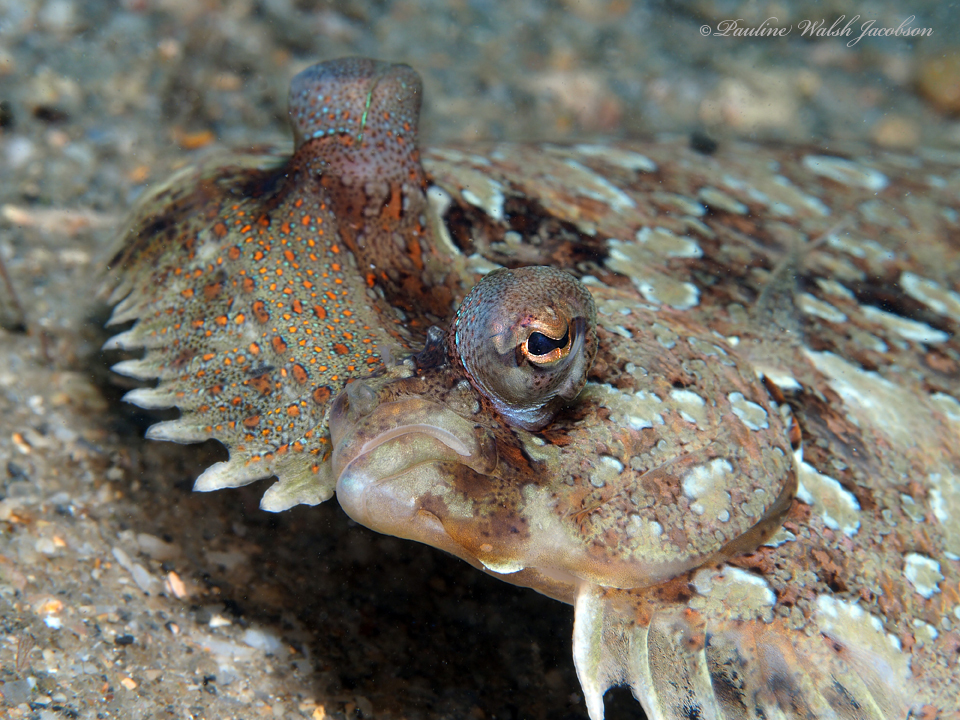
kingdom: Animalia
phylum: Chordata
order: Pleuronectiformes
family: Bothidae
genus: Bothus
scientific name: Bothus ocellatus
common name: Eyed flounder
